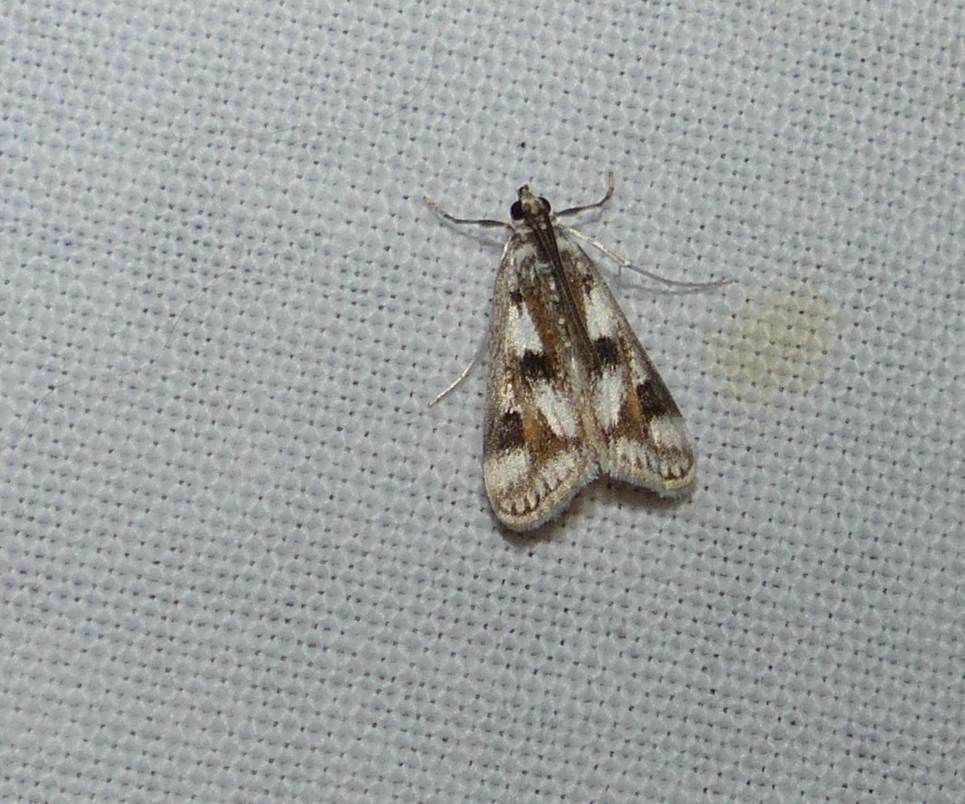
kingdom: Animalia
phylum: Arthropoda
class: Insecta
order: Lepidoptera
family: Crambidae
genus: Parapoynx
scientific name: Parapoynx maculalis
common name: Polymorphic pondweed moth
